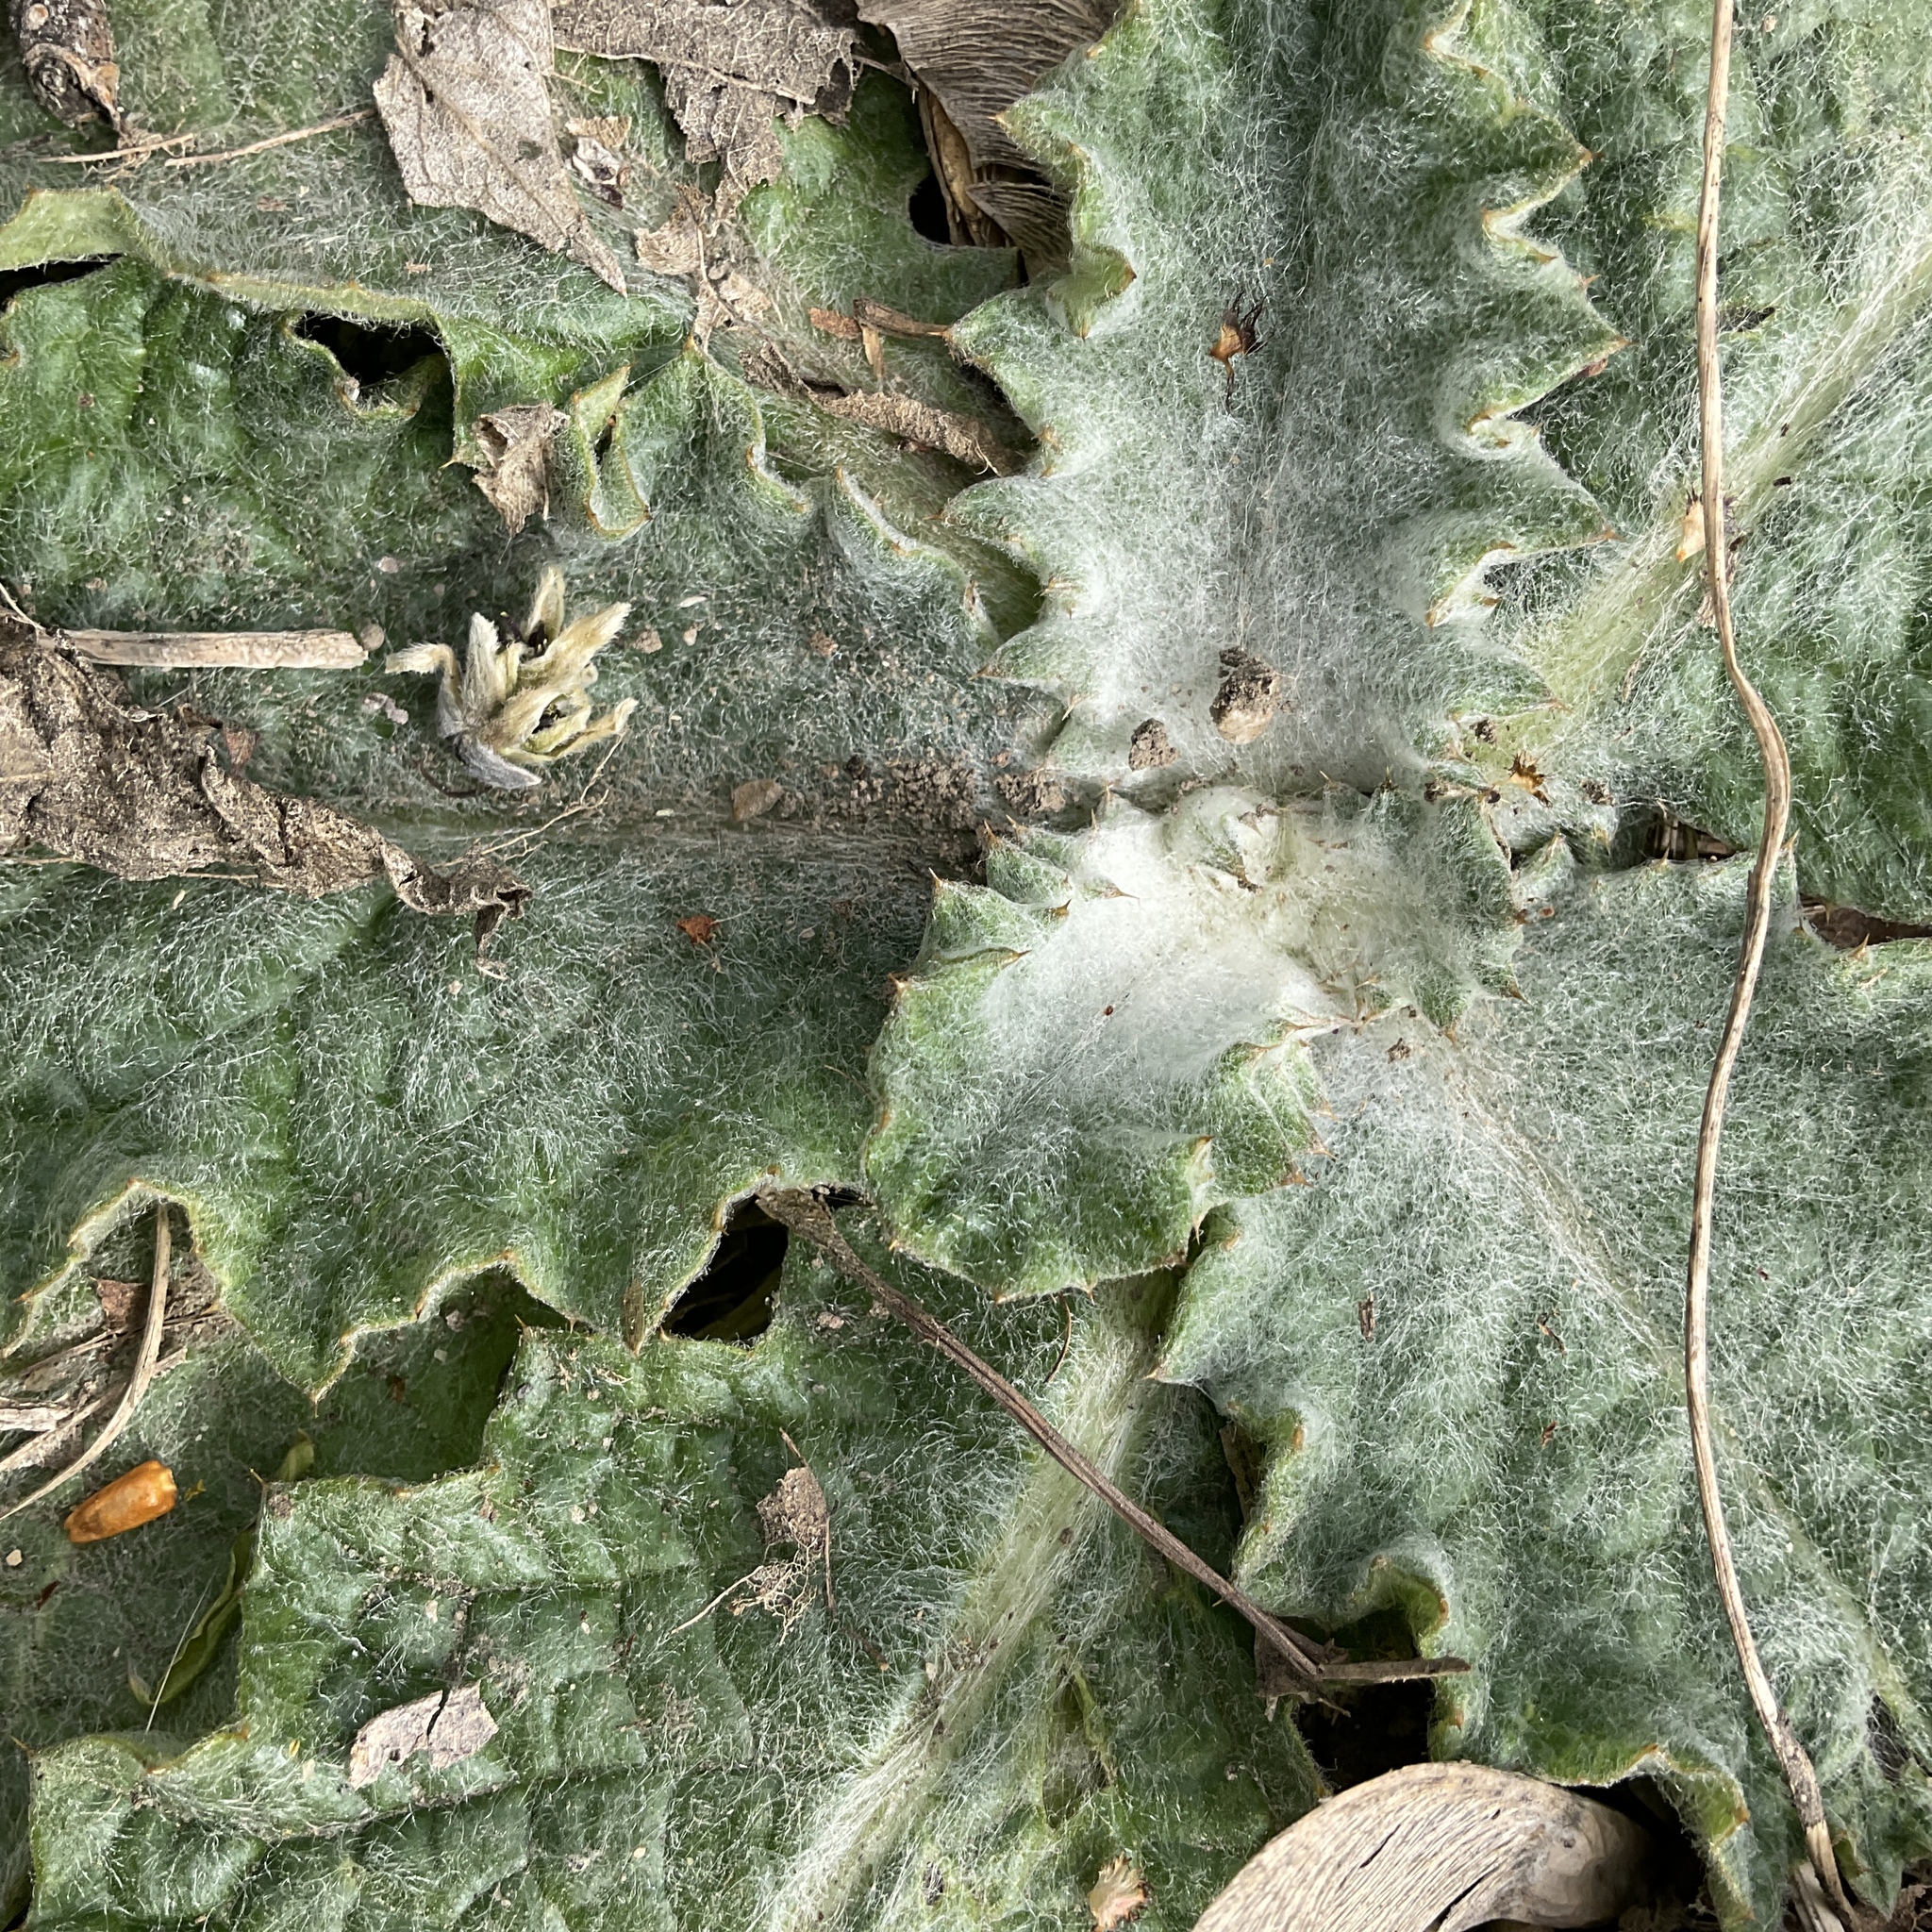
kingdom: Plantae
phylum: Tracheophyta
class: Magnoliopsida
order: Asterales
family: Asteraceae
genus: Onopordum
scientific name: Onopordum acanthium
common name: Scotch thistle
